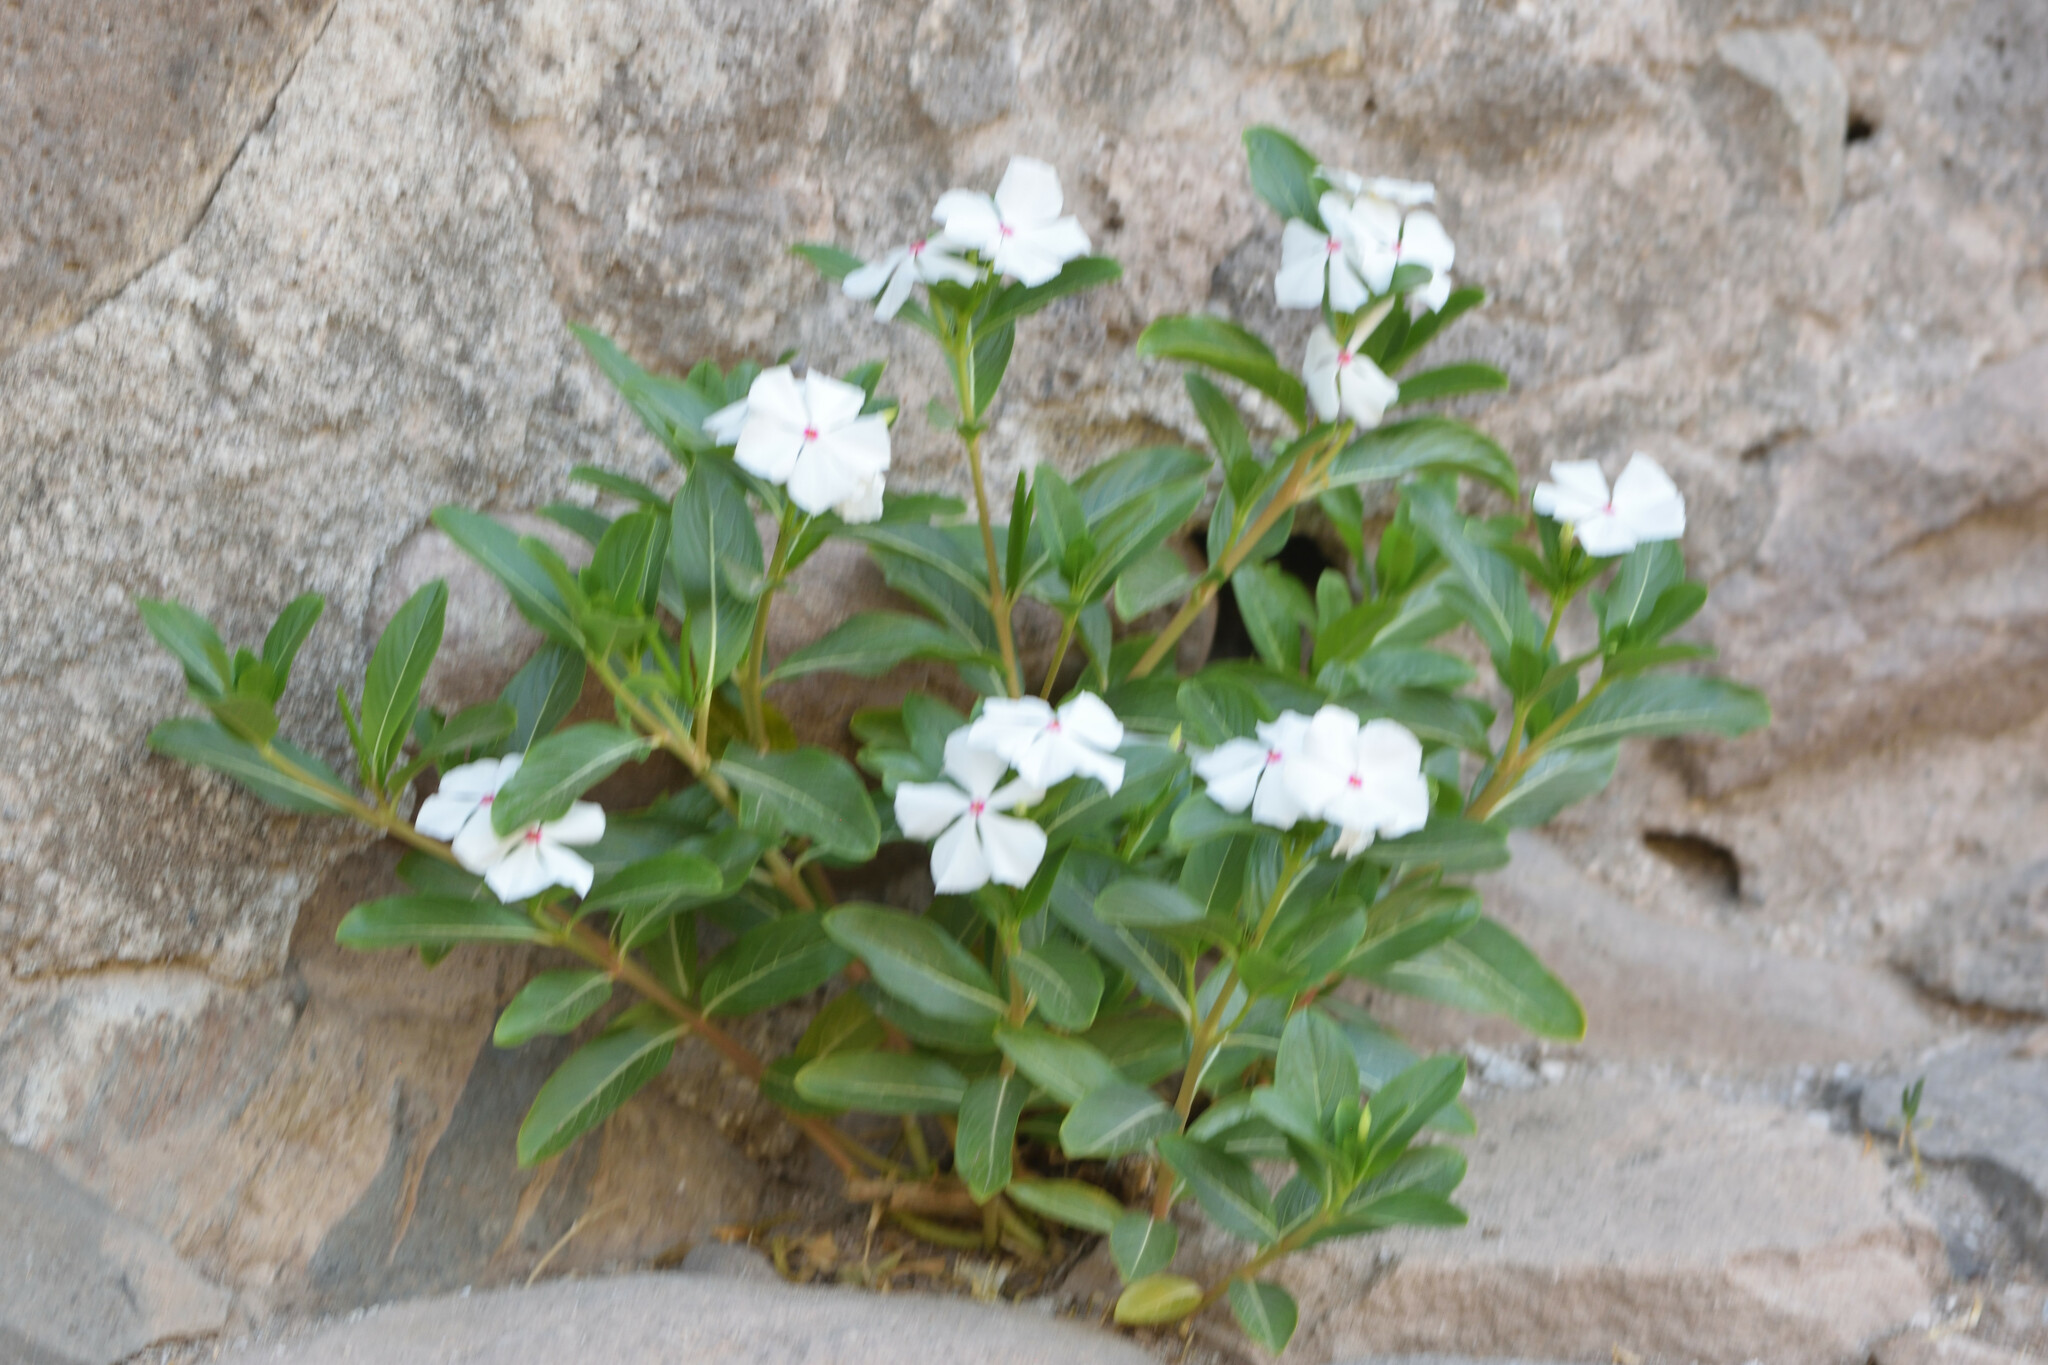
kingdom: Plantae
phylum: Tracheophyta
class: Magnoliopsida
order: Gentianales
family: Apocynaceae
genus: Catharanthus
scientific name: Catharanthus roseus
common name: Madagascar periwinkle
